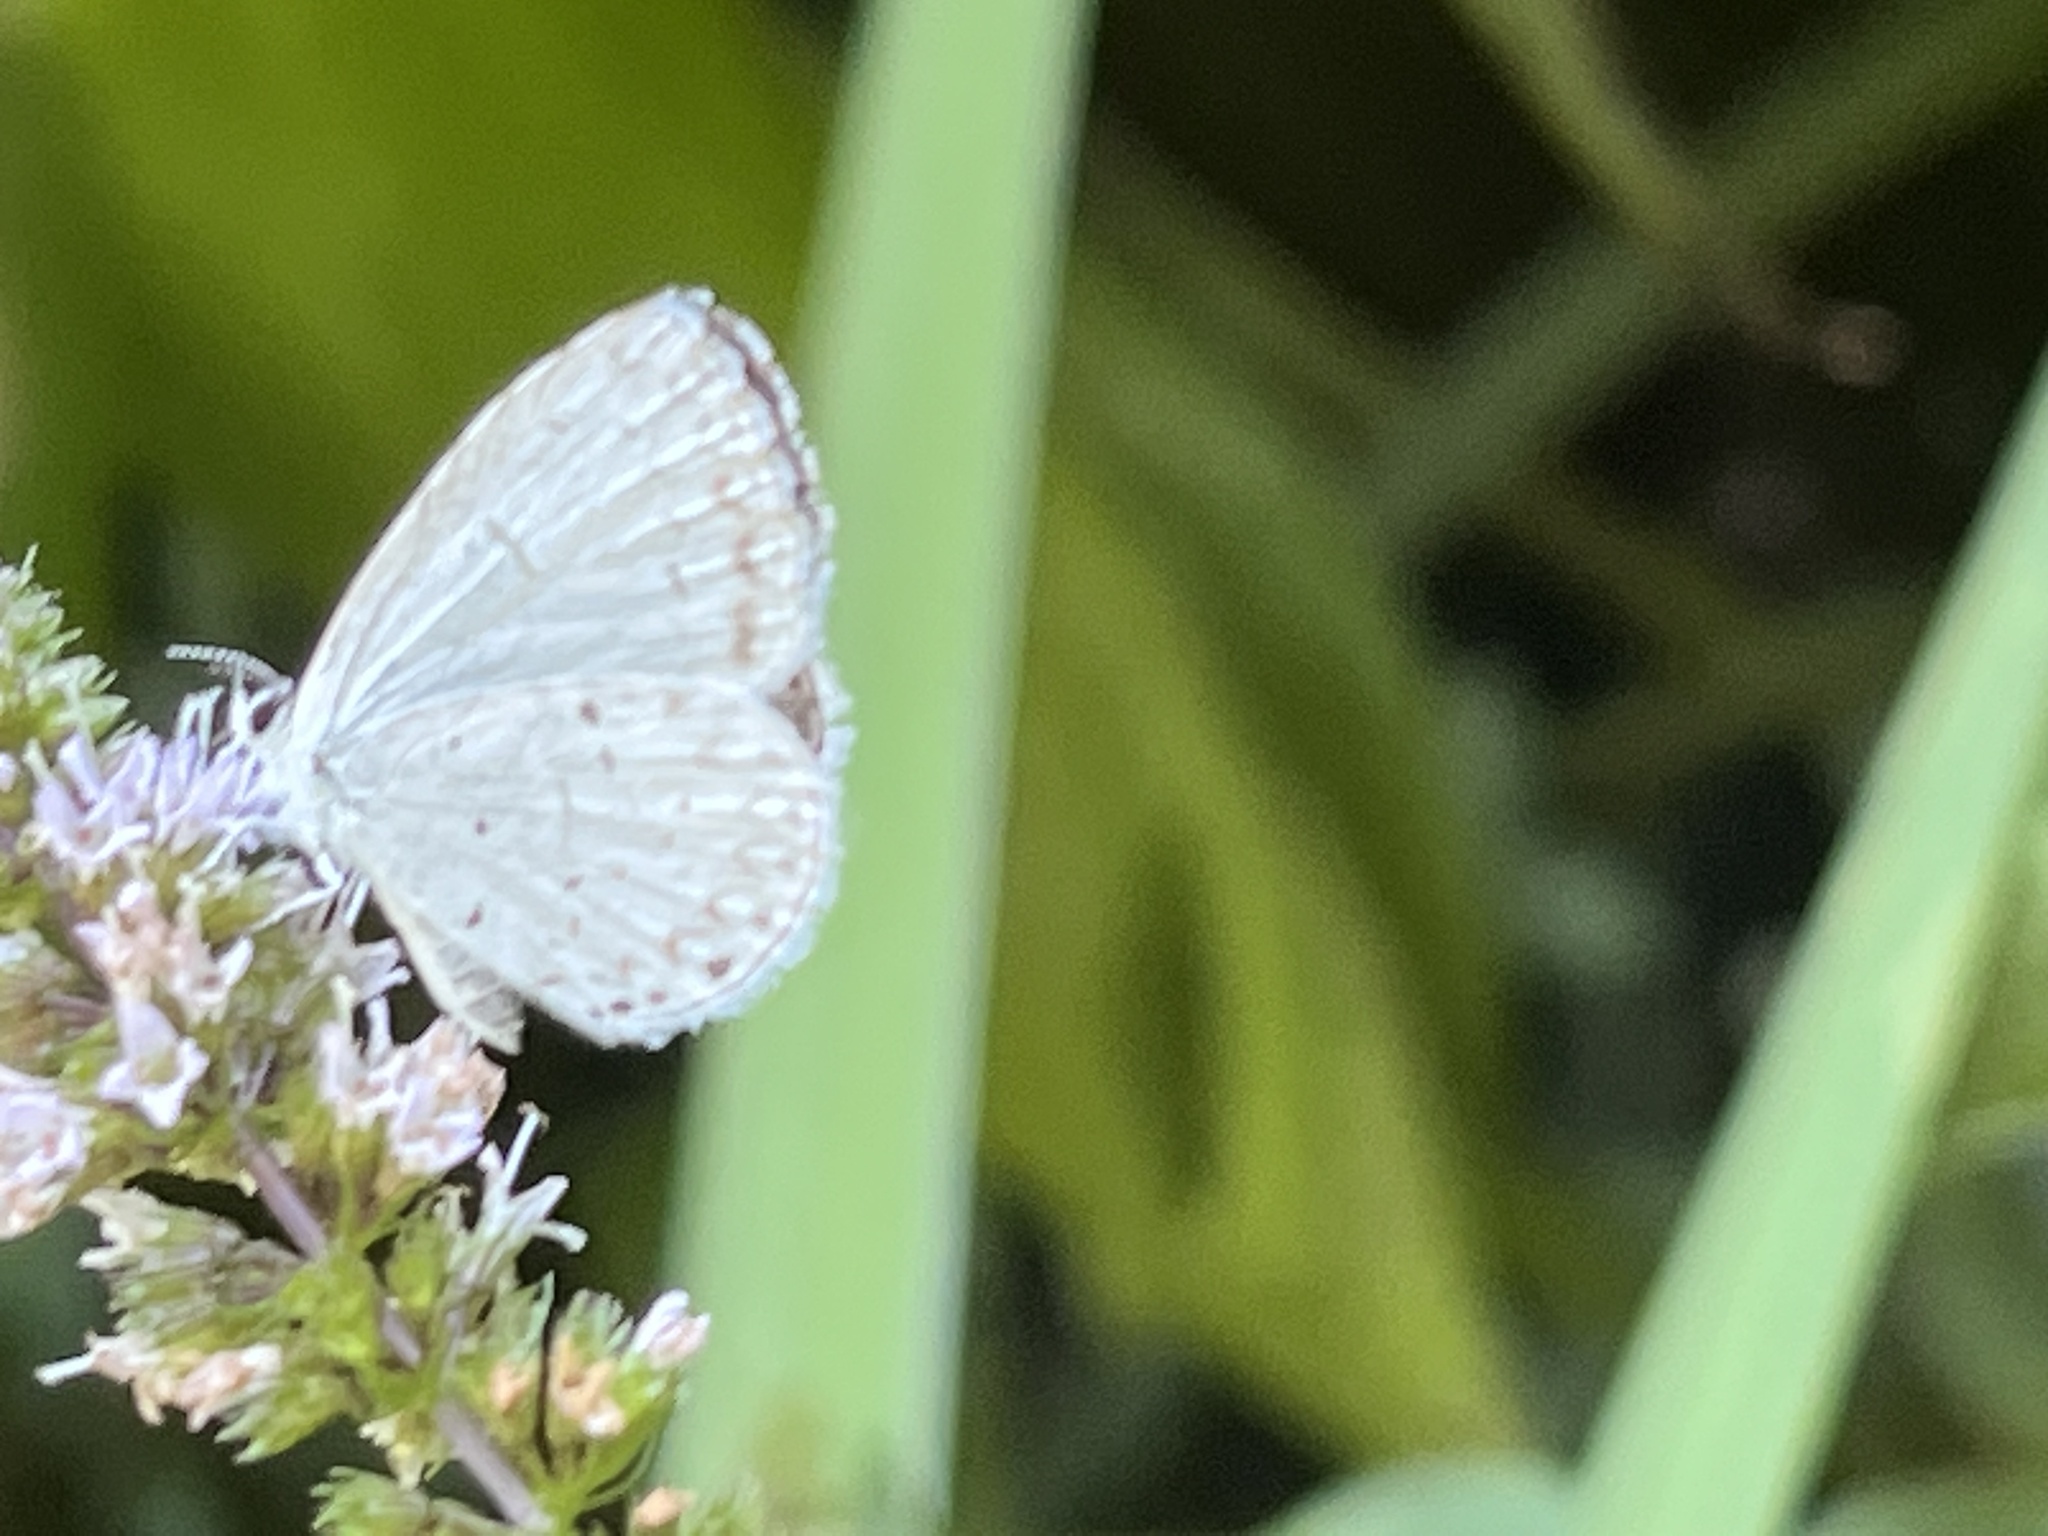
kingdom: Animalia
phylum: Arthropoda
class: Insecta
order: Lepidoptera
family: Lycaenidae
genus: Cyaniris
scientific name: Cyaniris neglecta
